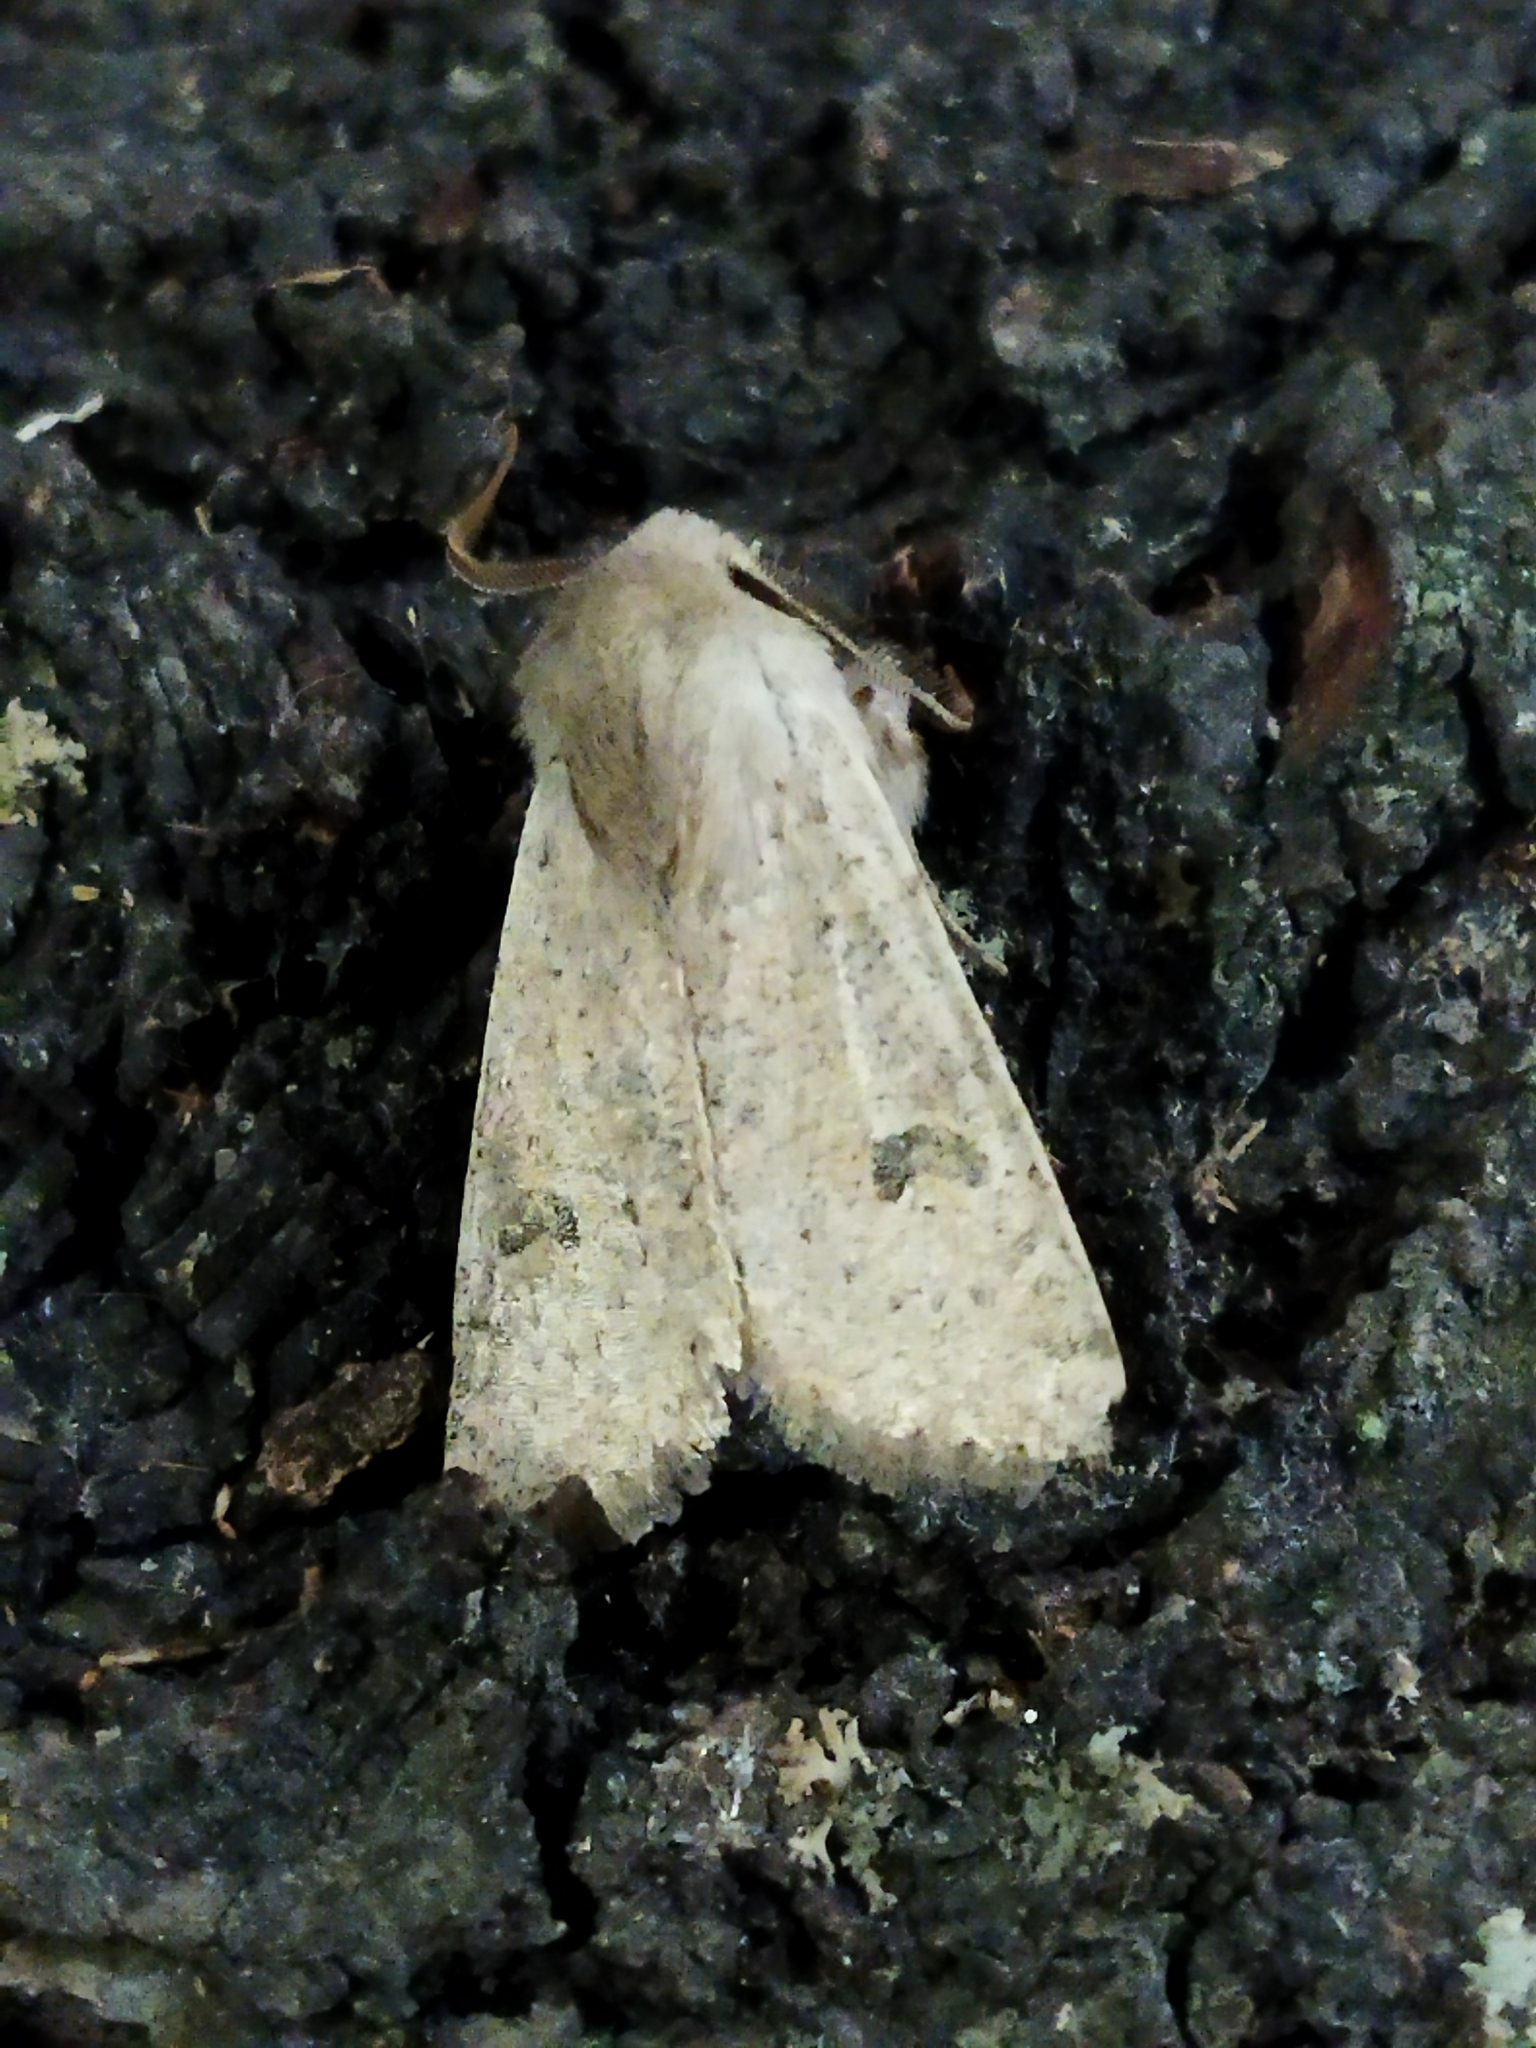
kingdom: Animalia
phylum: Arthropoda
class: Insecta
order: Lepidoptera
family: Noctuidae
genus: Orthosia
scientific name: Orthosia cruda
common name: Small quaker
